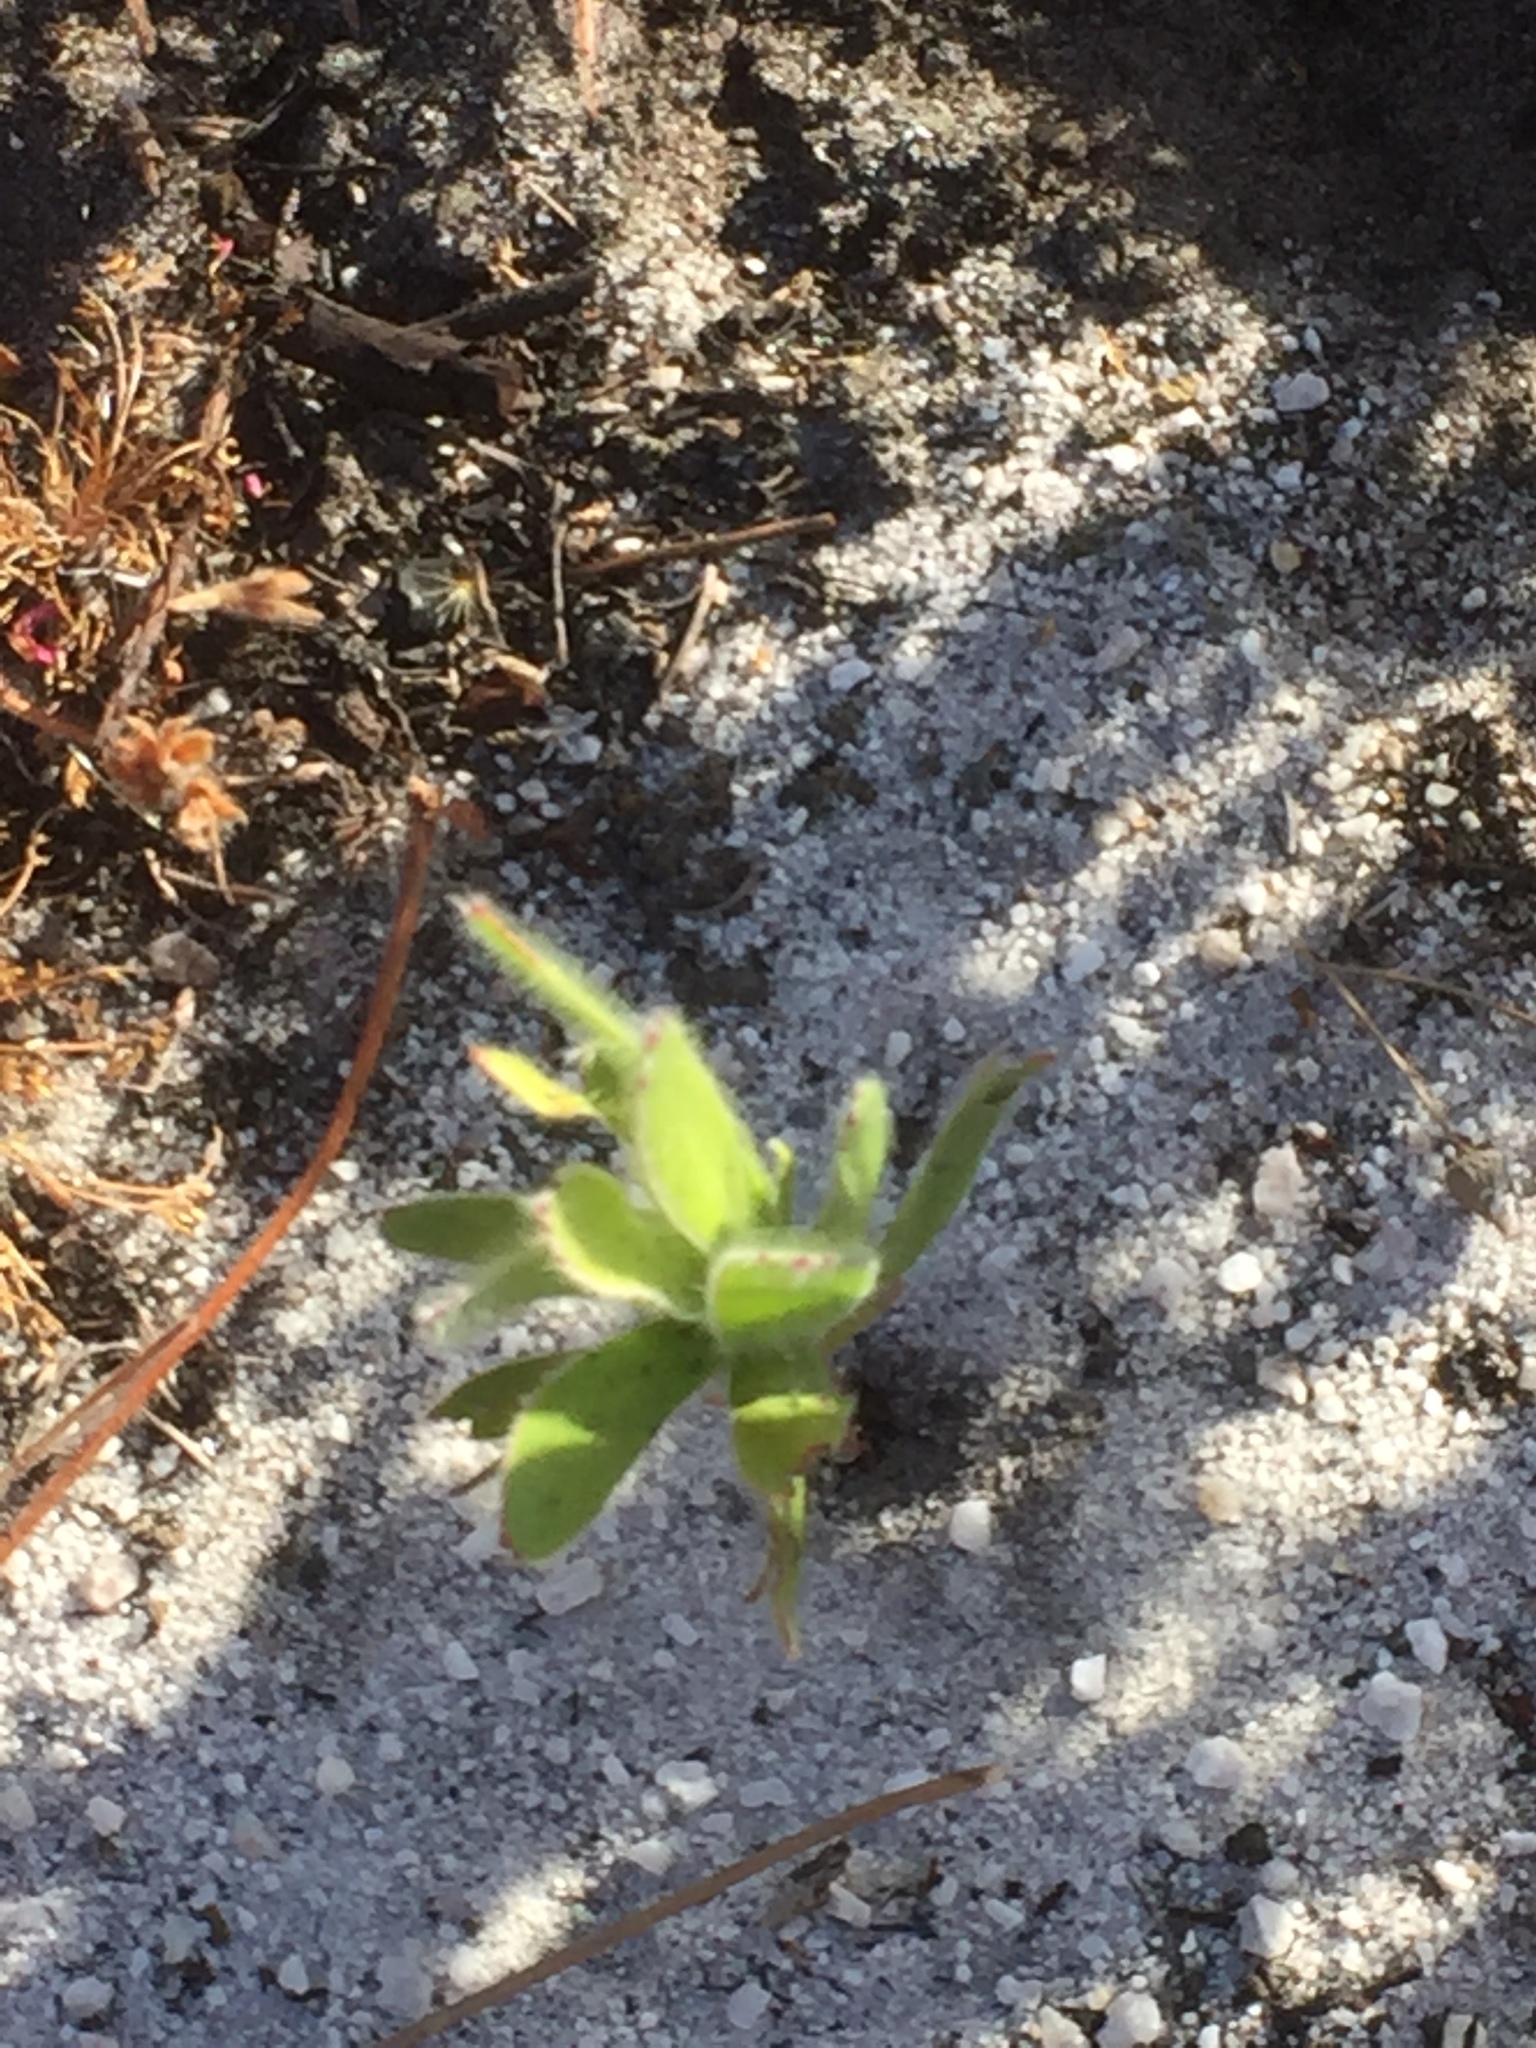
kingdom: Plantae
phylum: Tracheophyta
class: Magnoliopsida
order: Proteales
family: Proteaceae
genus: Leucospermum
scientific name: Leucospermum conocarpodendron
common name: Tree pincushion
